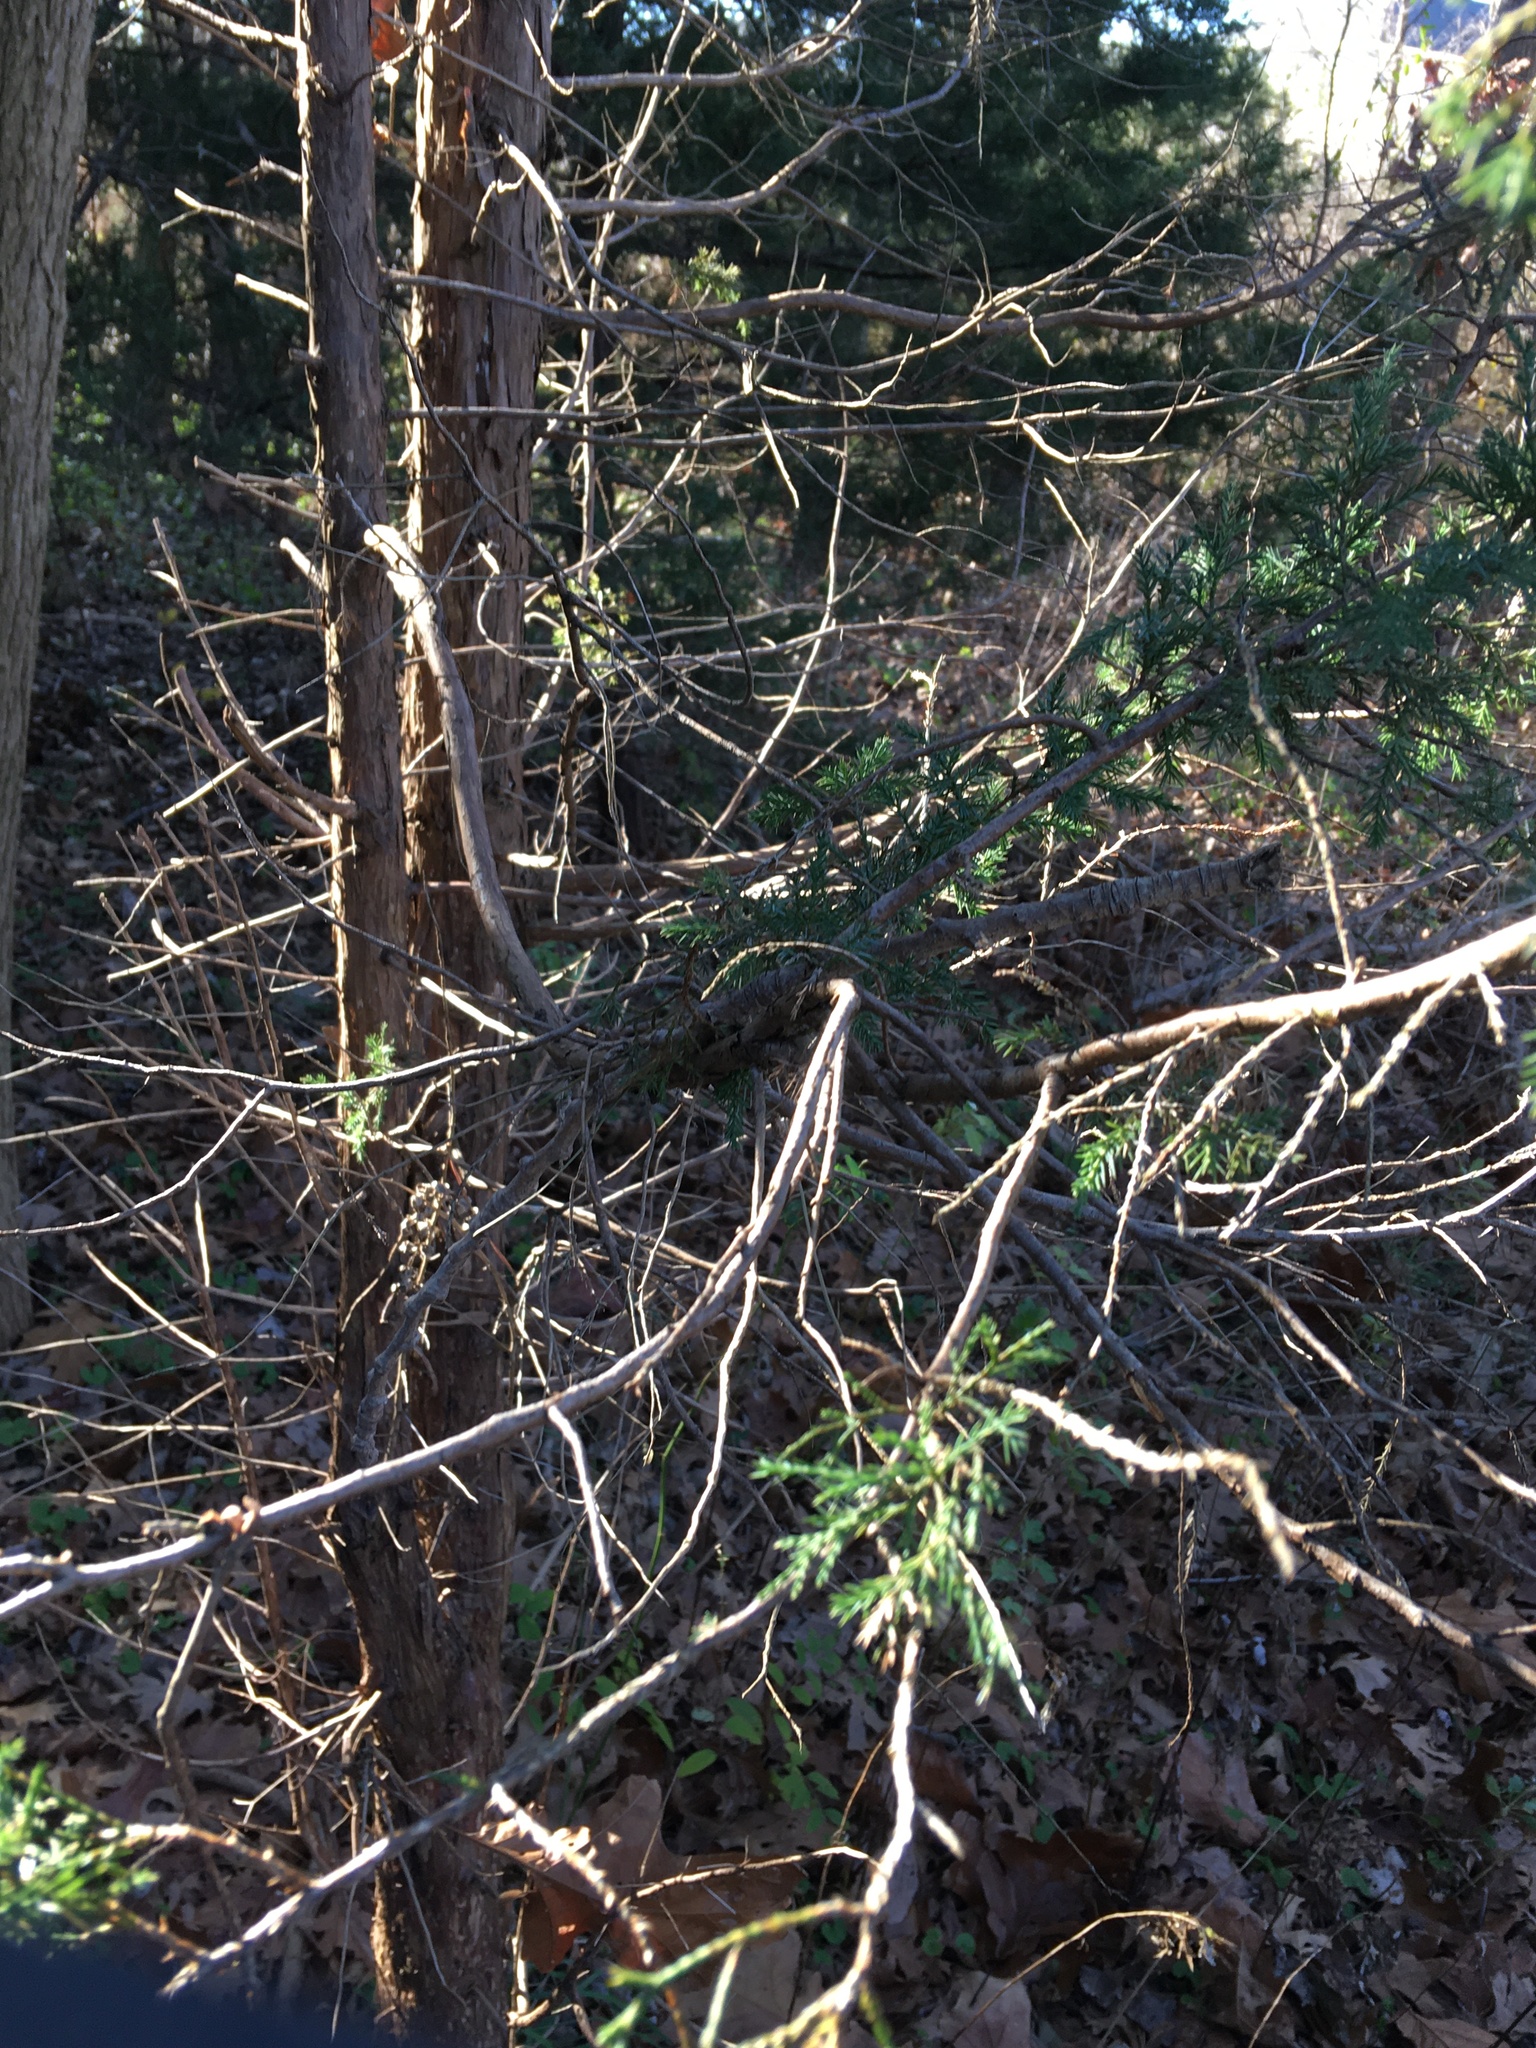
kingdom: Plantae
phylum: Tracheophyta
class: Pinopsida
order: Pinales
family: Cupressaceae
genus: Juniperus
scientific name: Juniperus virginiana
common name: Red juniper
